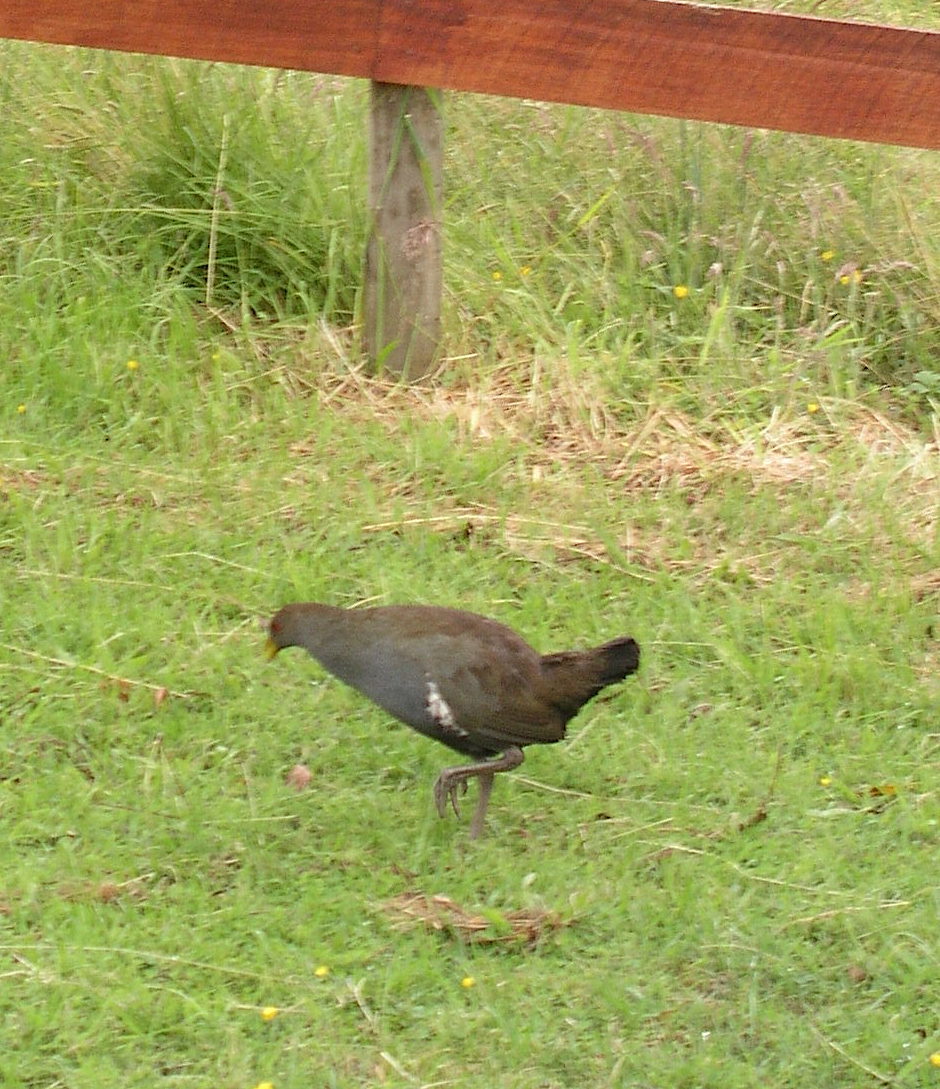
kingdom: Animalia
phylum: Chordata
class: Aves
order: Gruiformes
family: Rallidae
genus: Gallinula
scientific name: Gallinula mortierii
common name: Tasmanian nativehen
